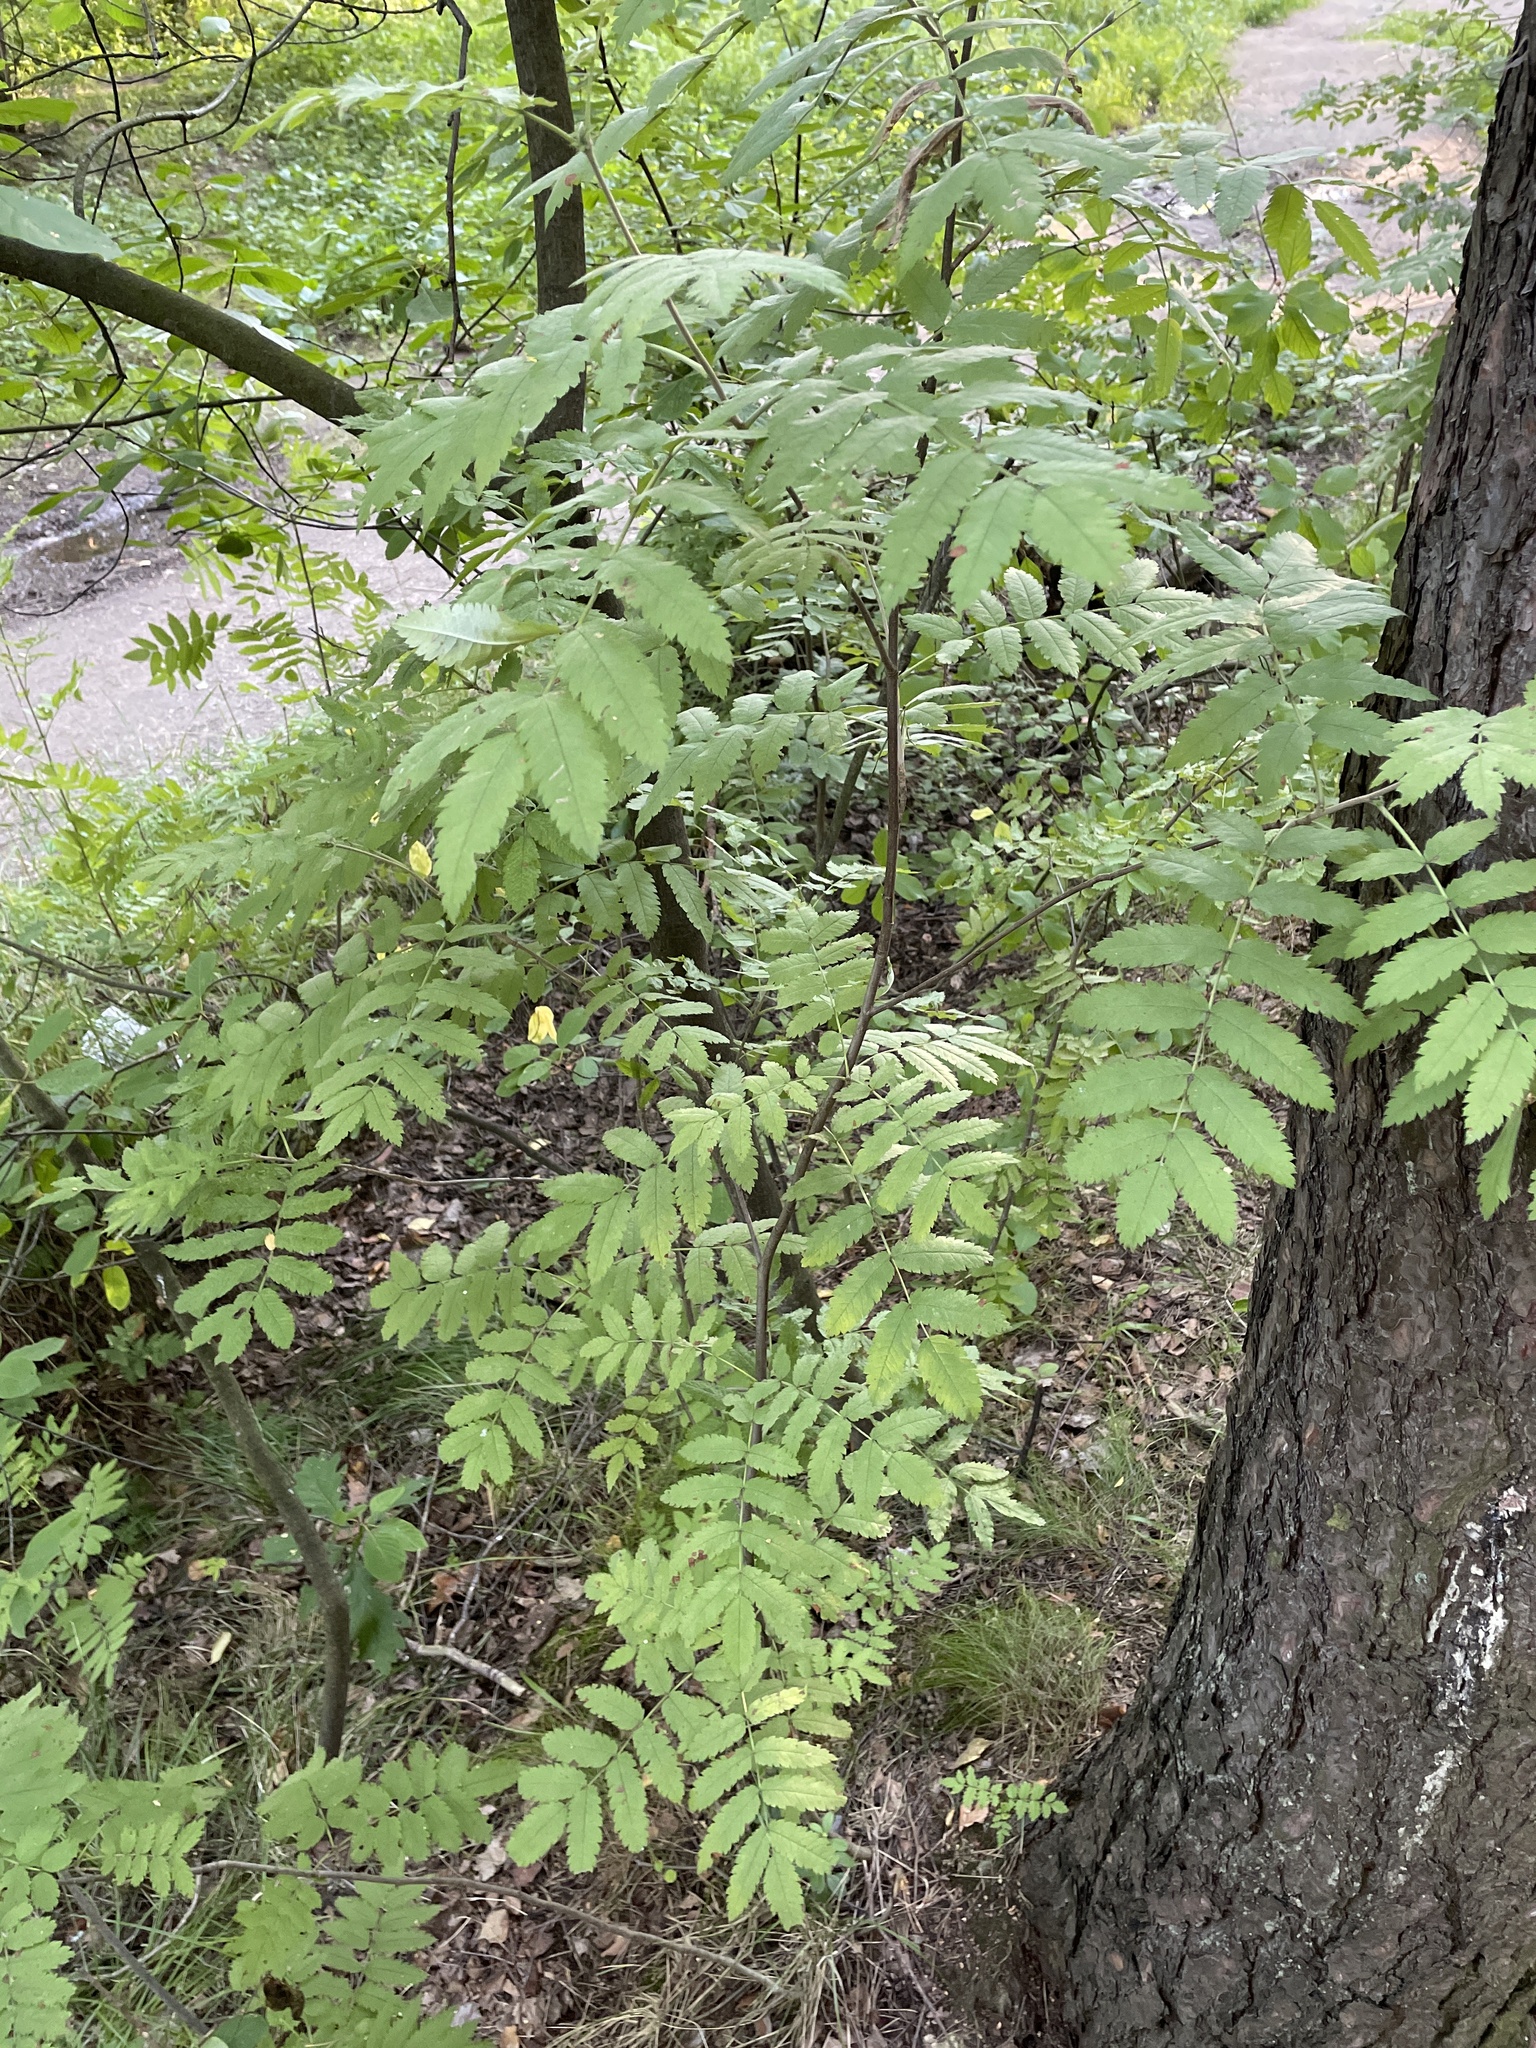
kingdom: Plantae
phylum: Tracheophyta
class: Magnoliopsida
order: Rosales
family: Rosaceae
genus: Sorbus
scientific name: Sorbus aucuparia
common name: Rowan
